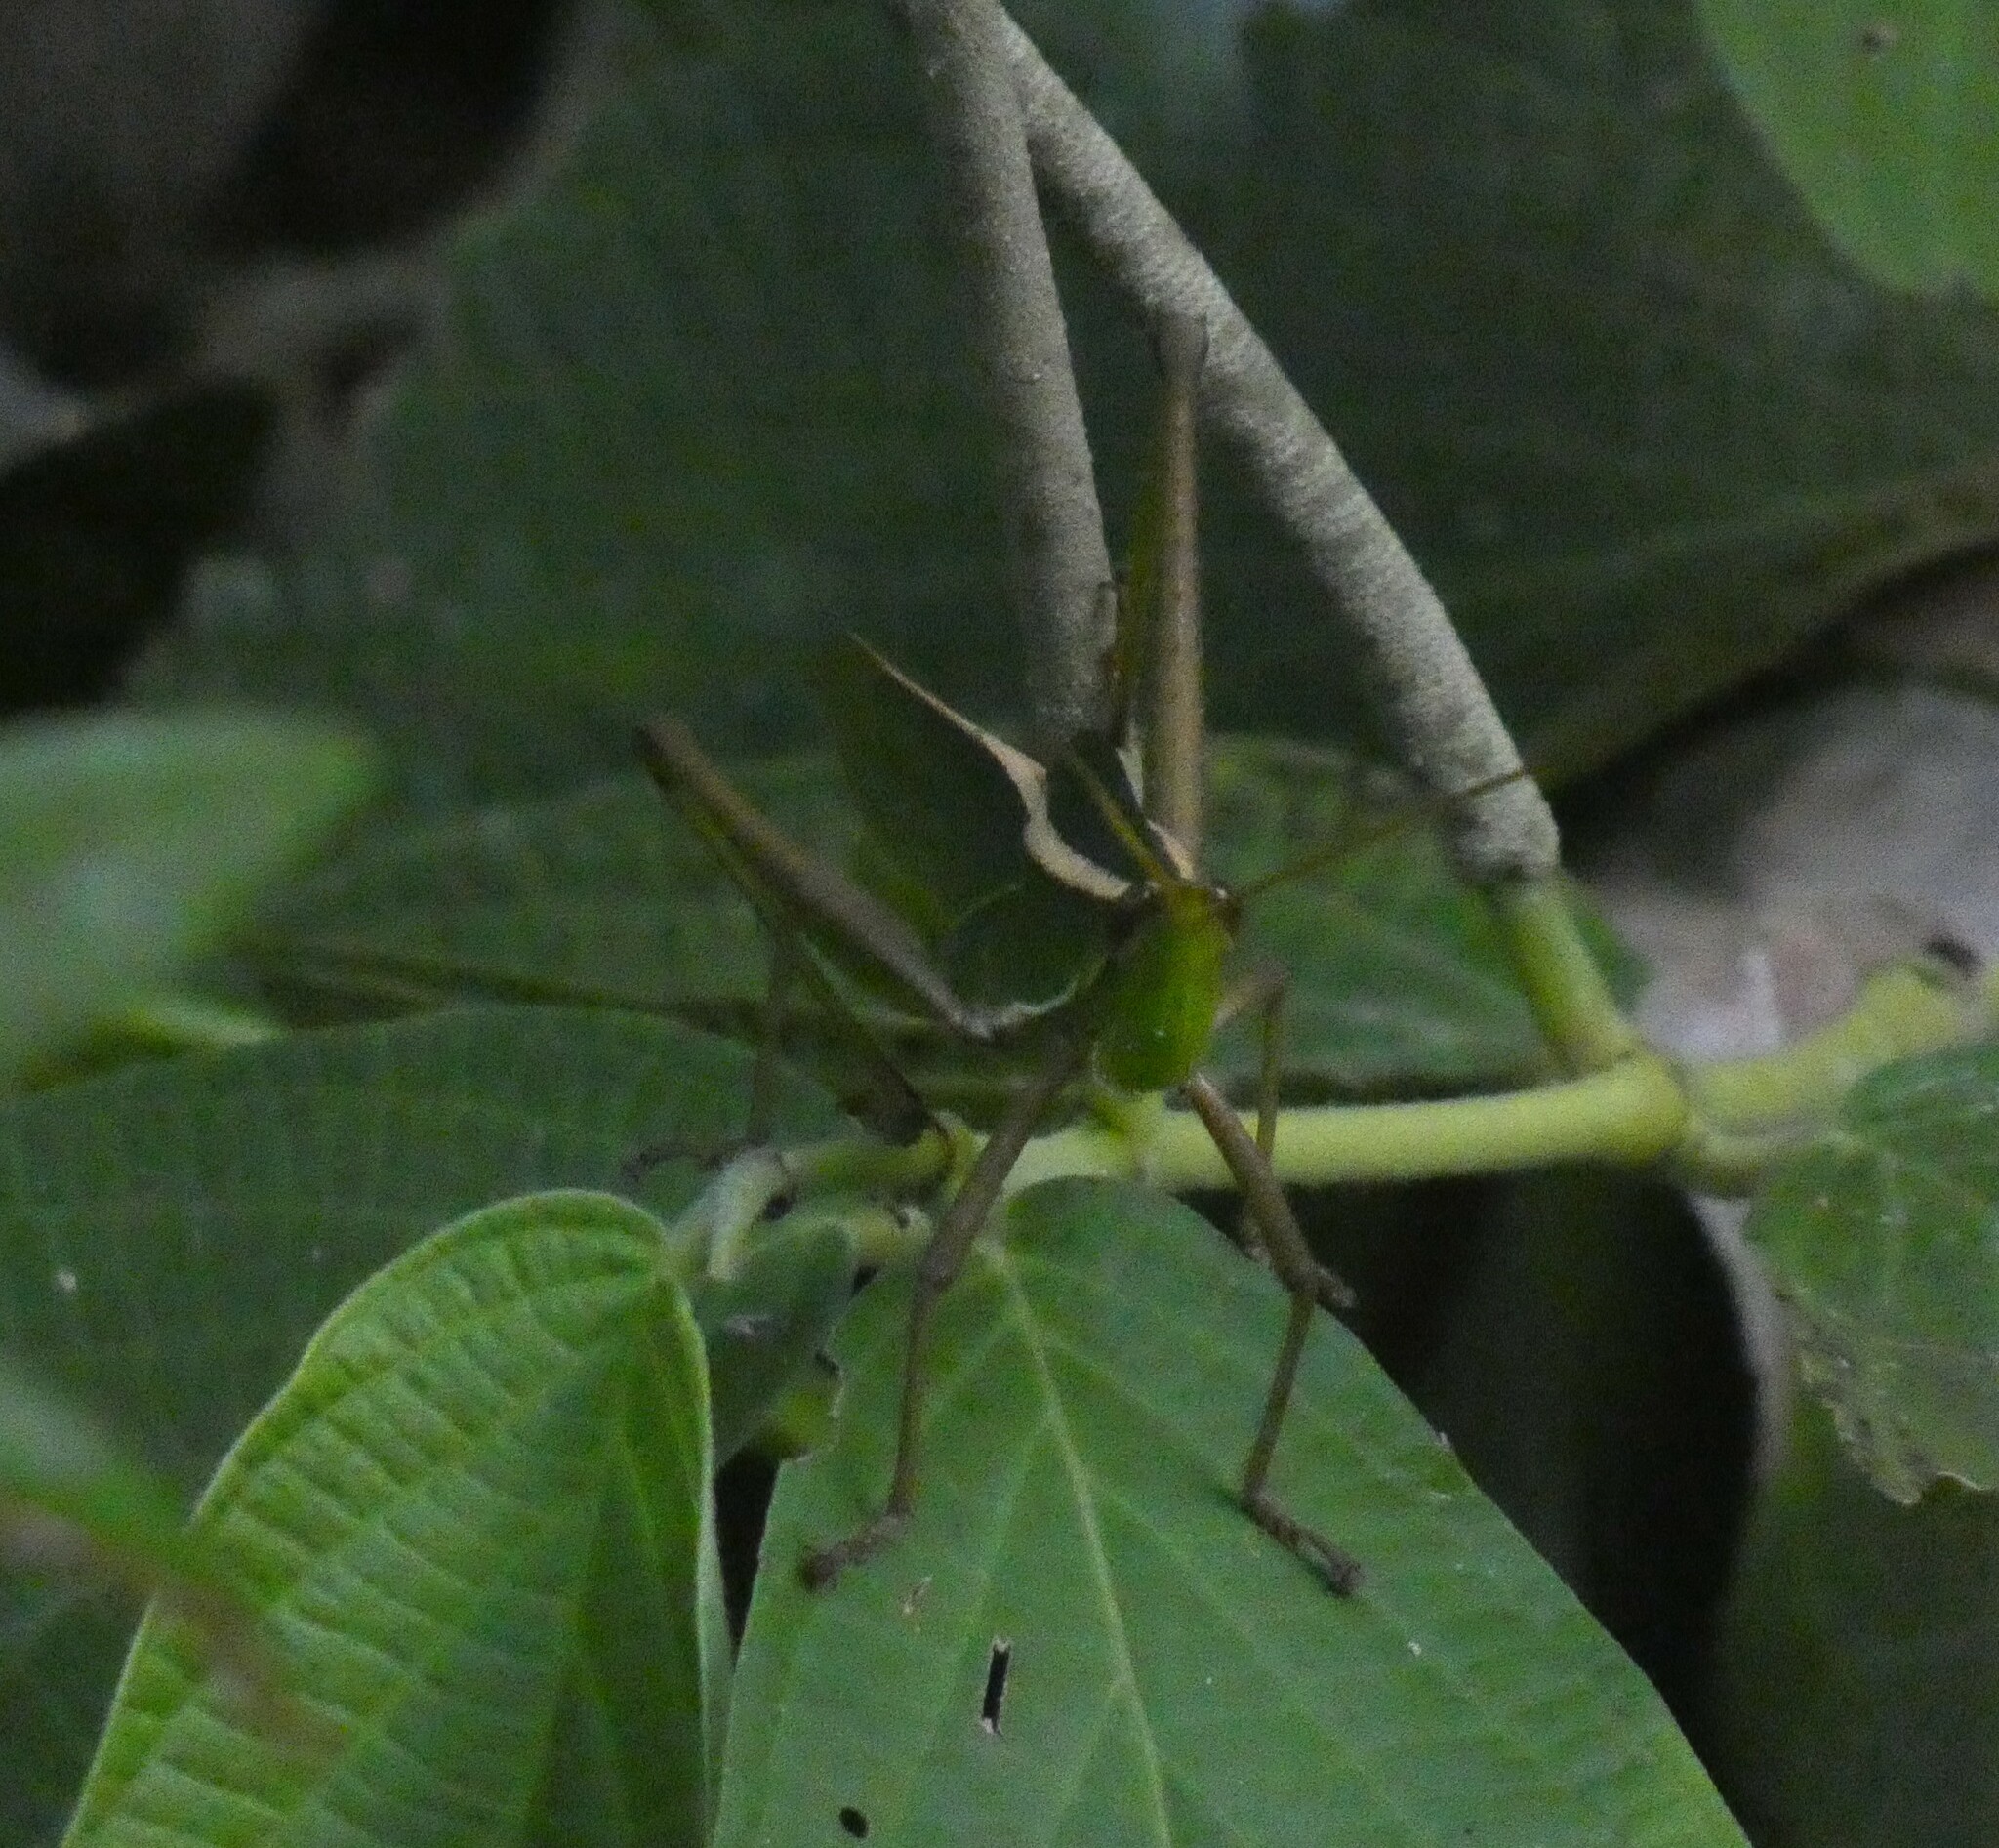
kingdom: Animalia
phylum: Arthropoda
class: Insecta
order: Orthoptera
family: Romaleidae
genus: Prionolopha
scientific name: Prionolopha serrata
